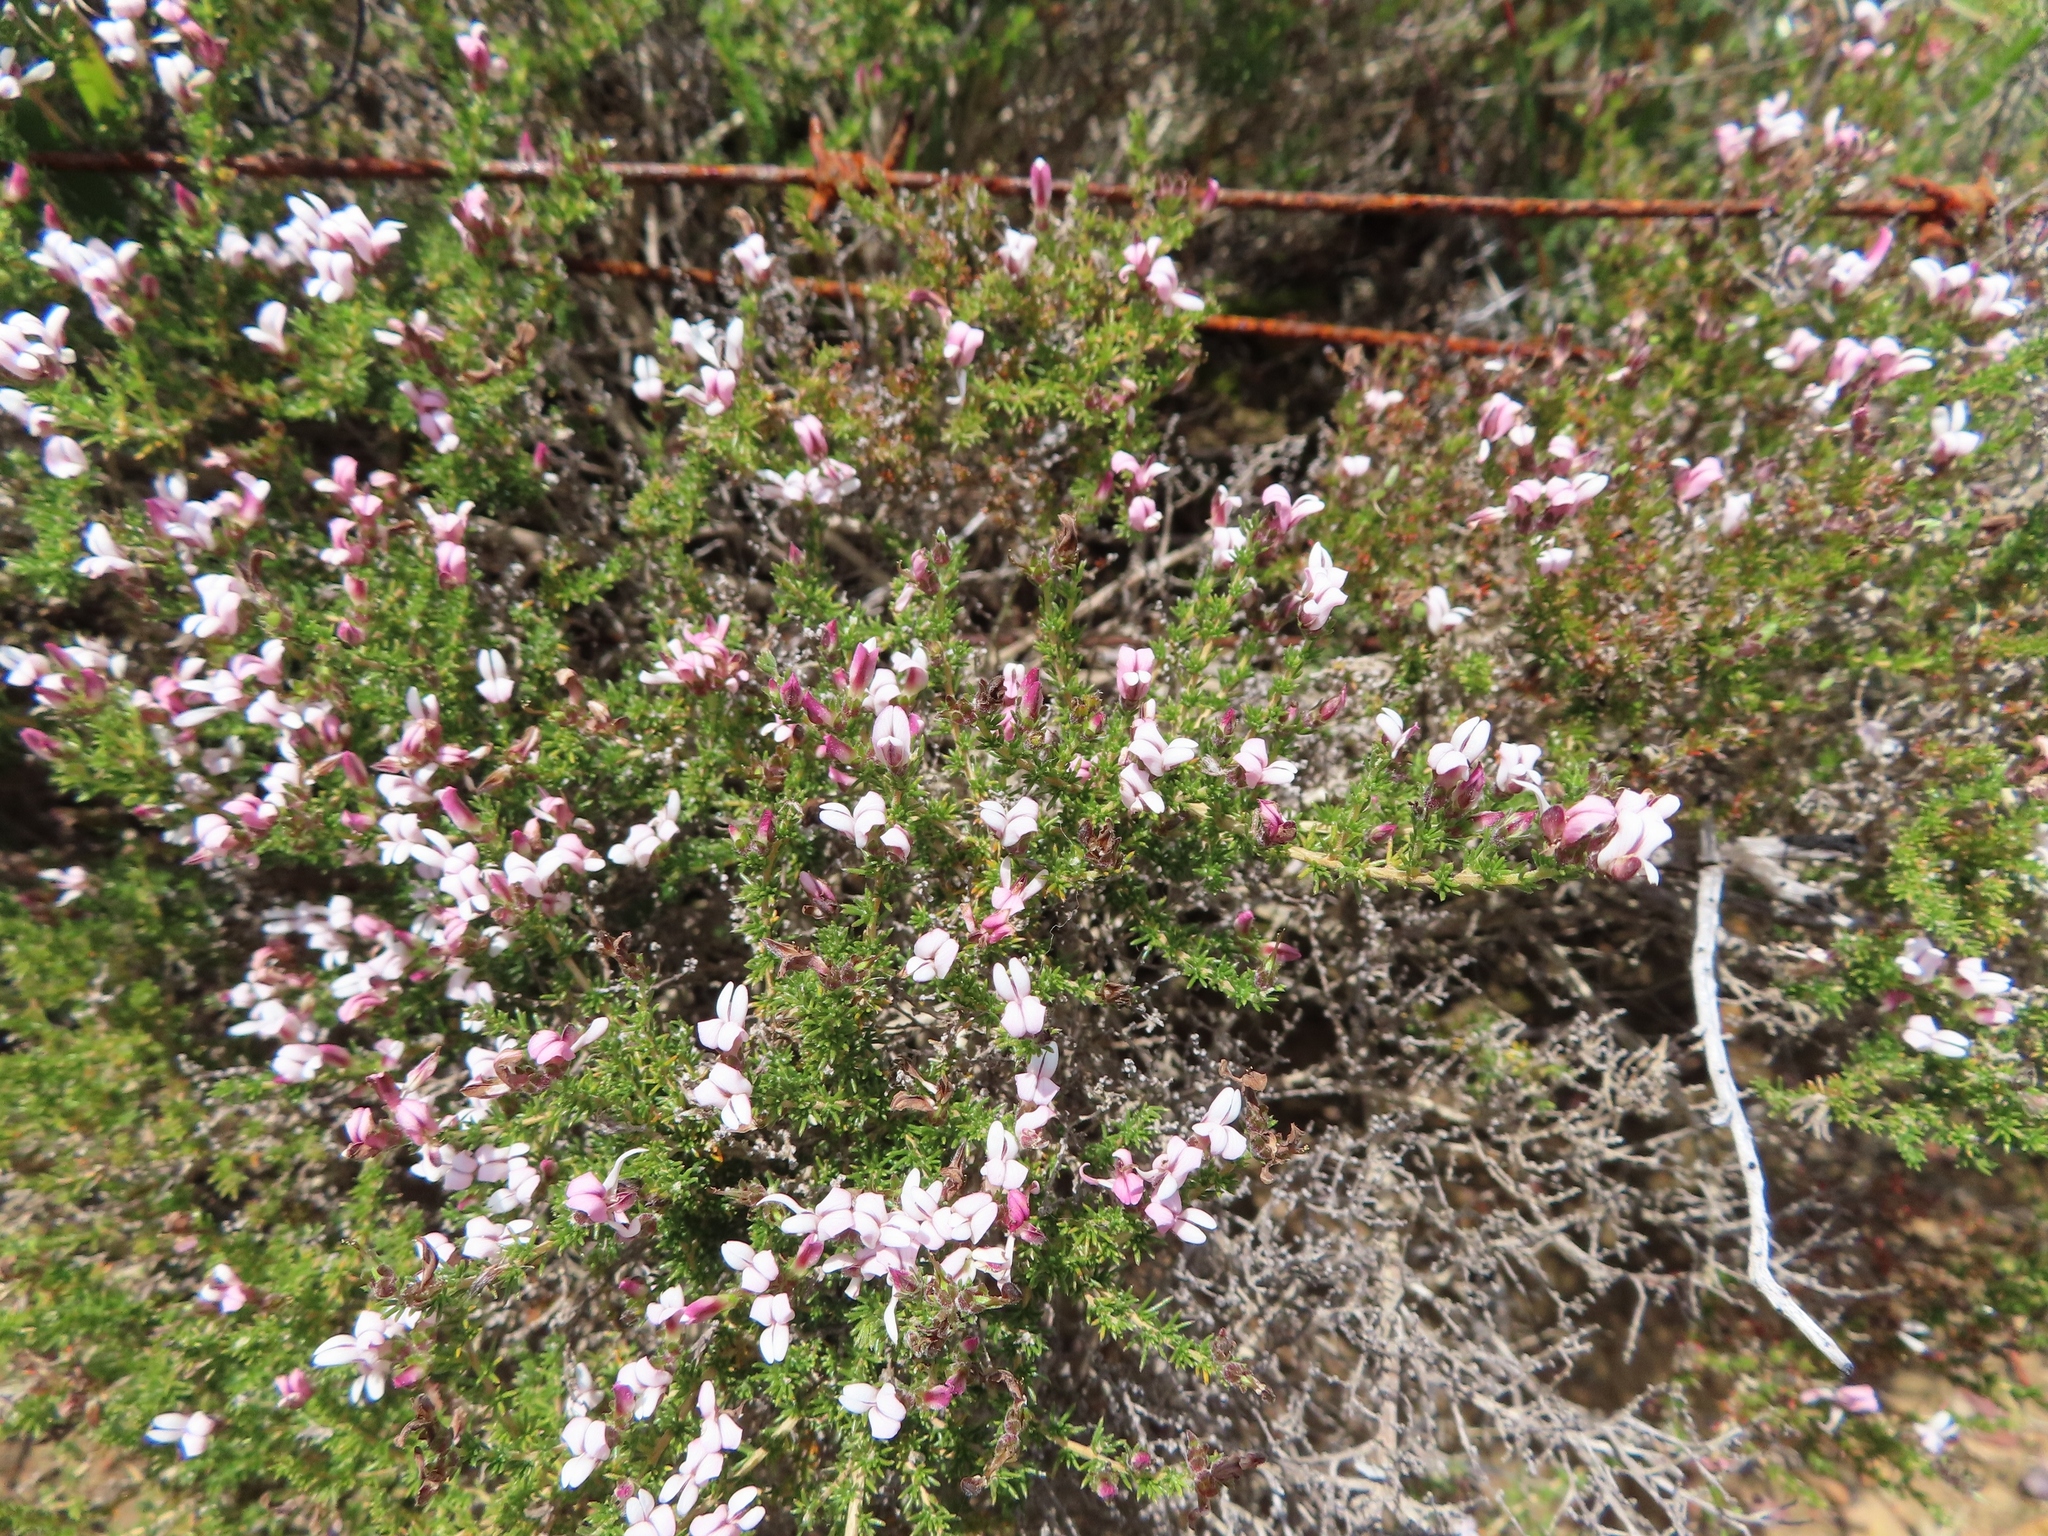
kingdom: Plantae
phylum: Tracheophyta
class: Magnoliopsida
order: Fabales
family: Fabaceae
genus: Aspalathus
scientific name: Aspalathus submissa
